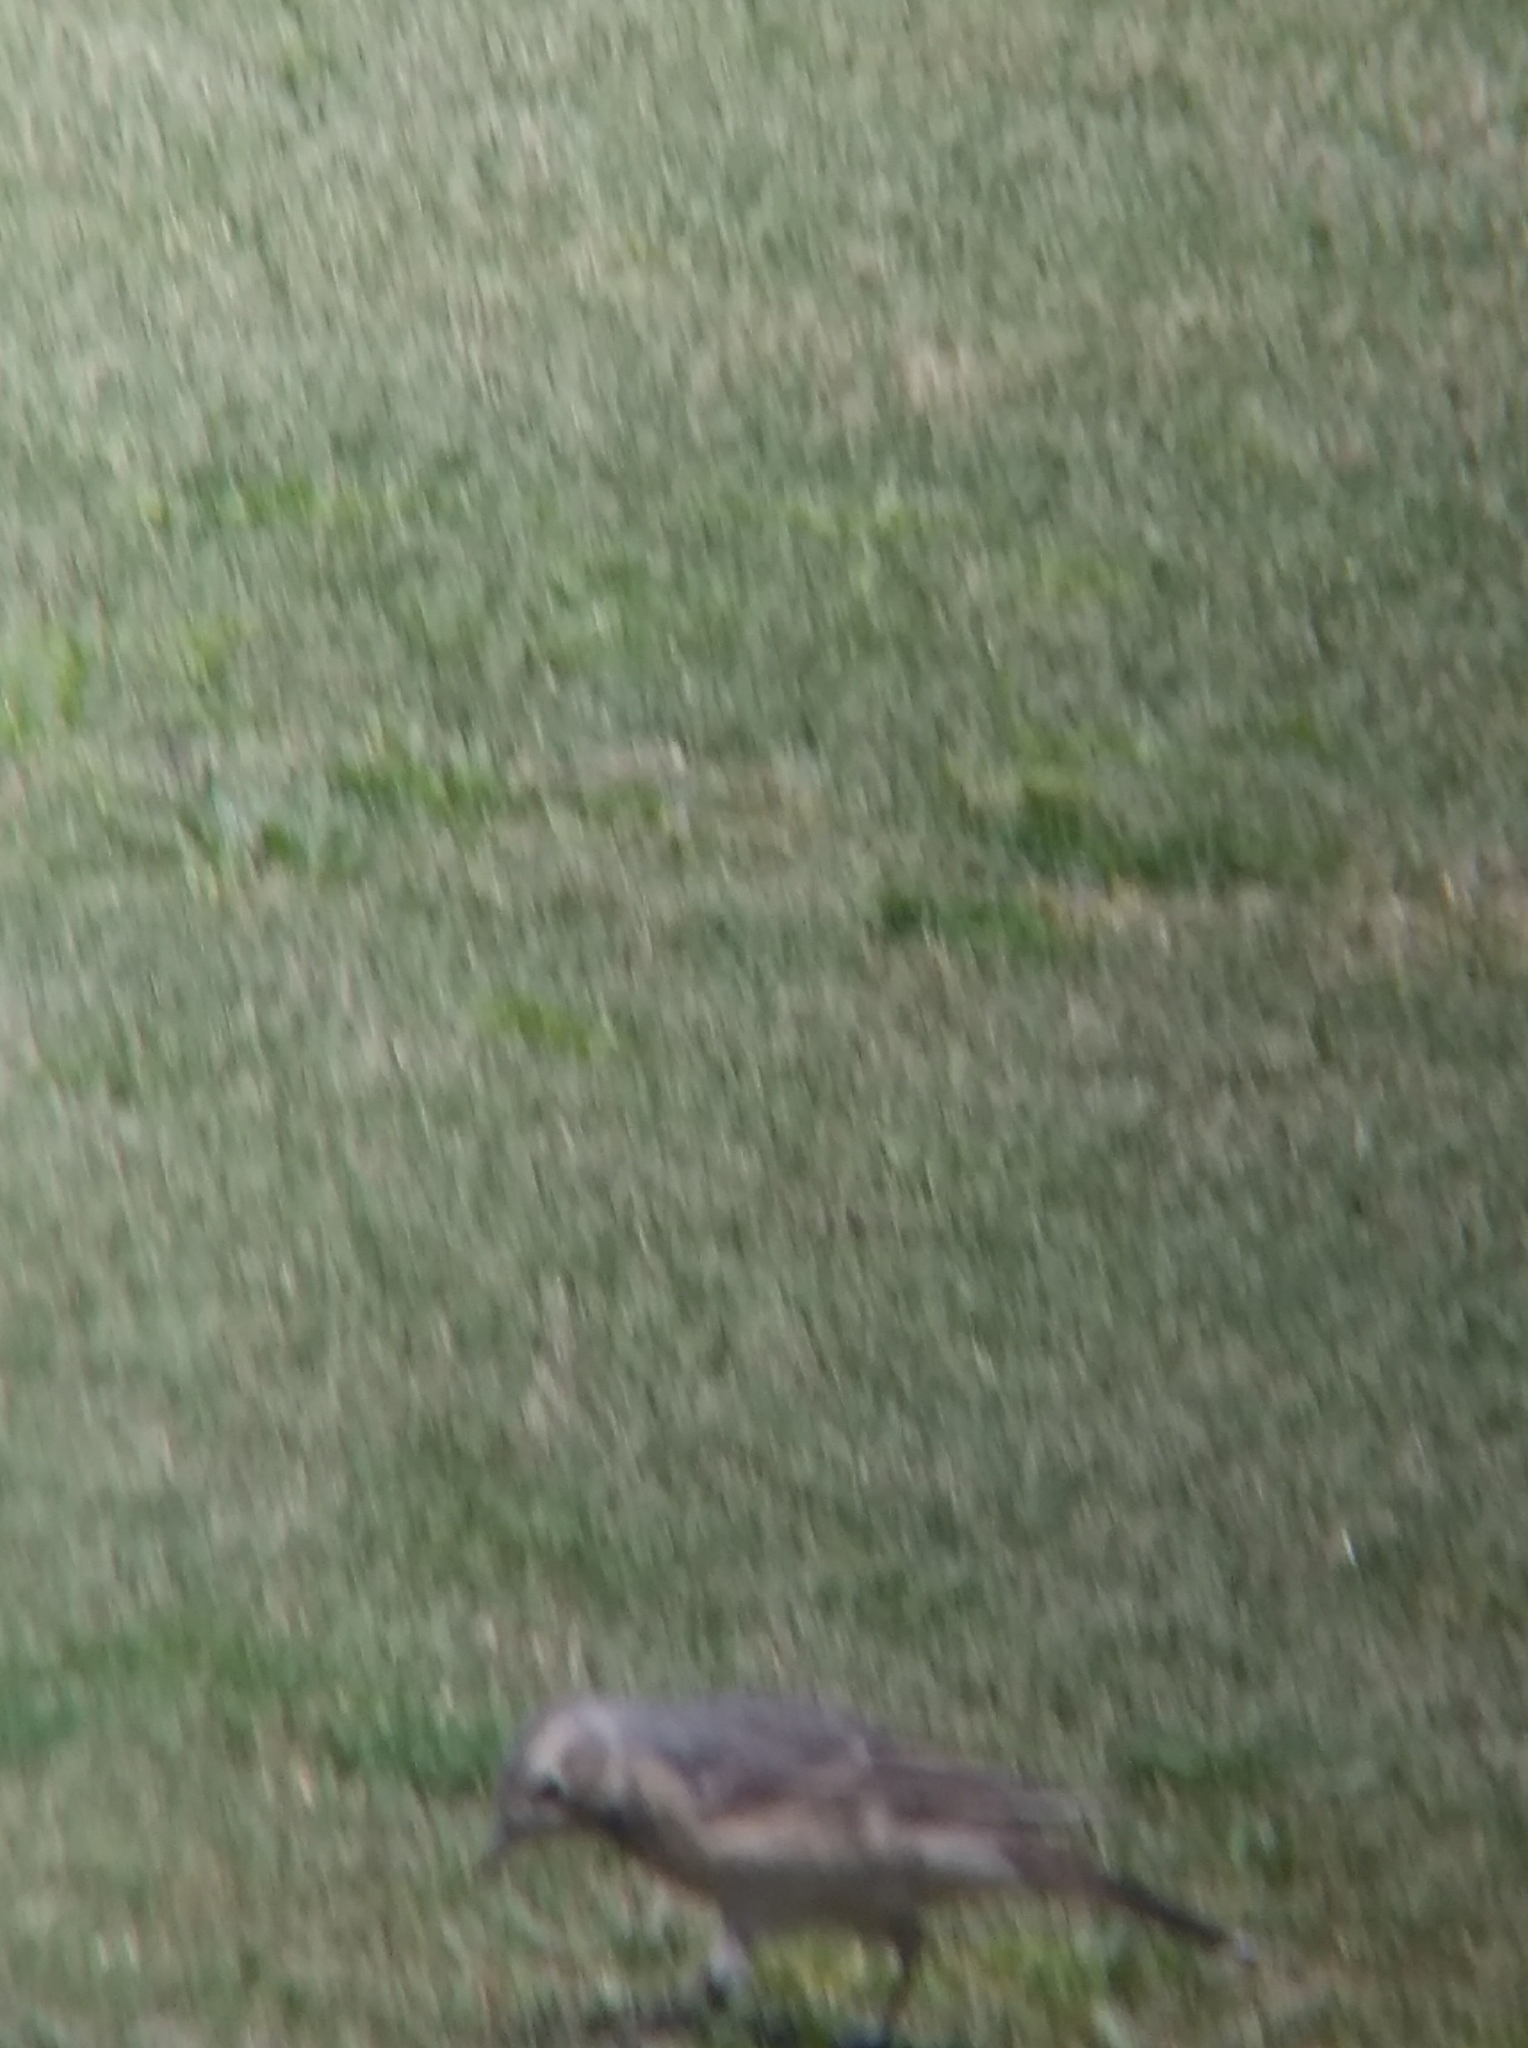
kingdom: Animalia
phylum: Chordata
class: Aves
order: Passeriformes
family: Motacillidae
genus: Anthus
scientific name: Anthus rubescens
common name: Buff-bellied pipit
